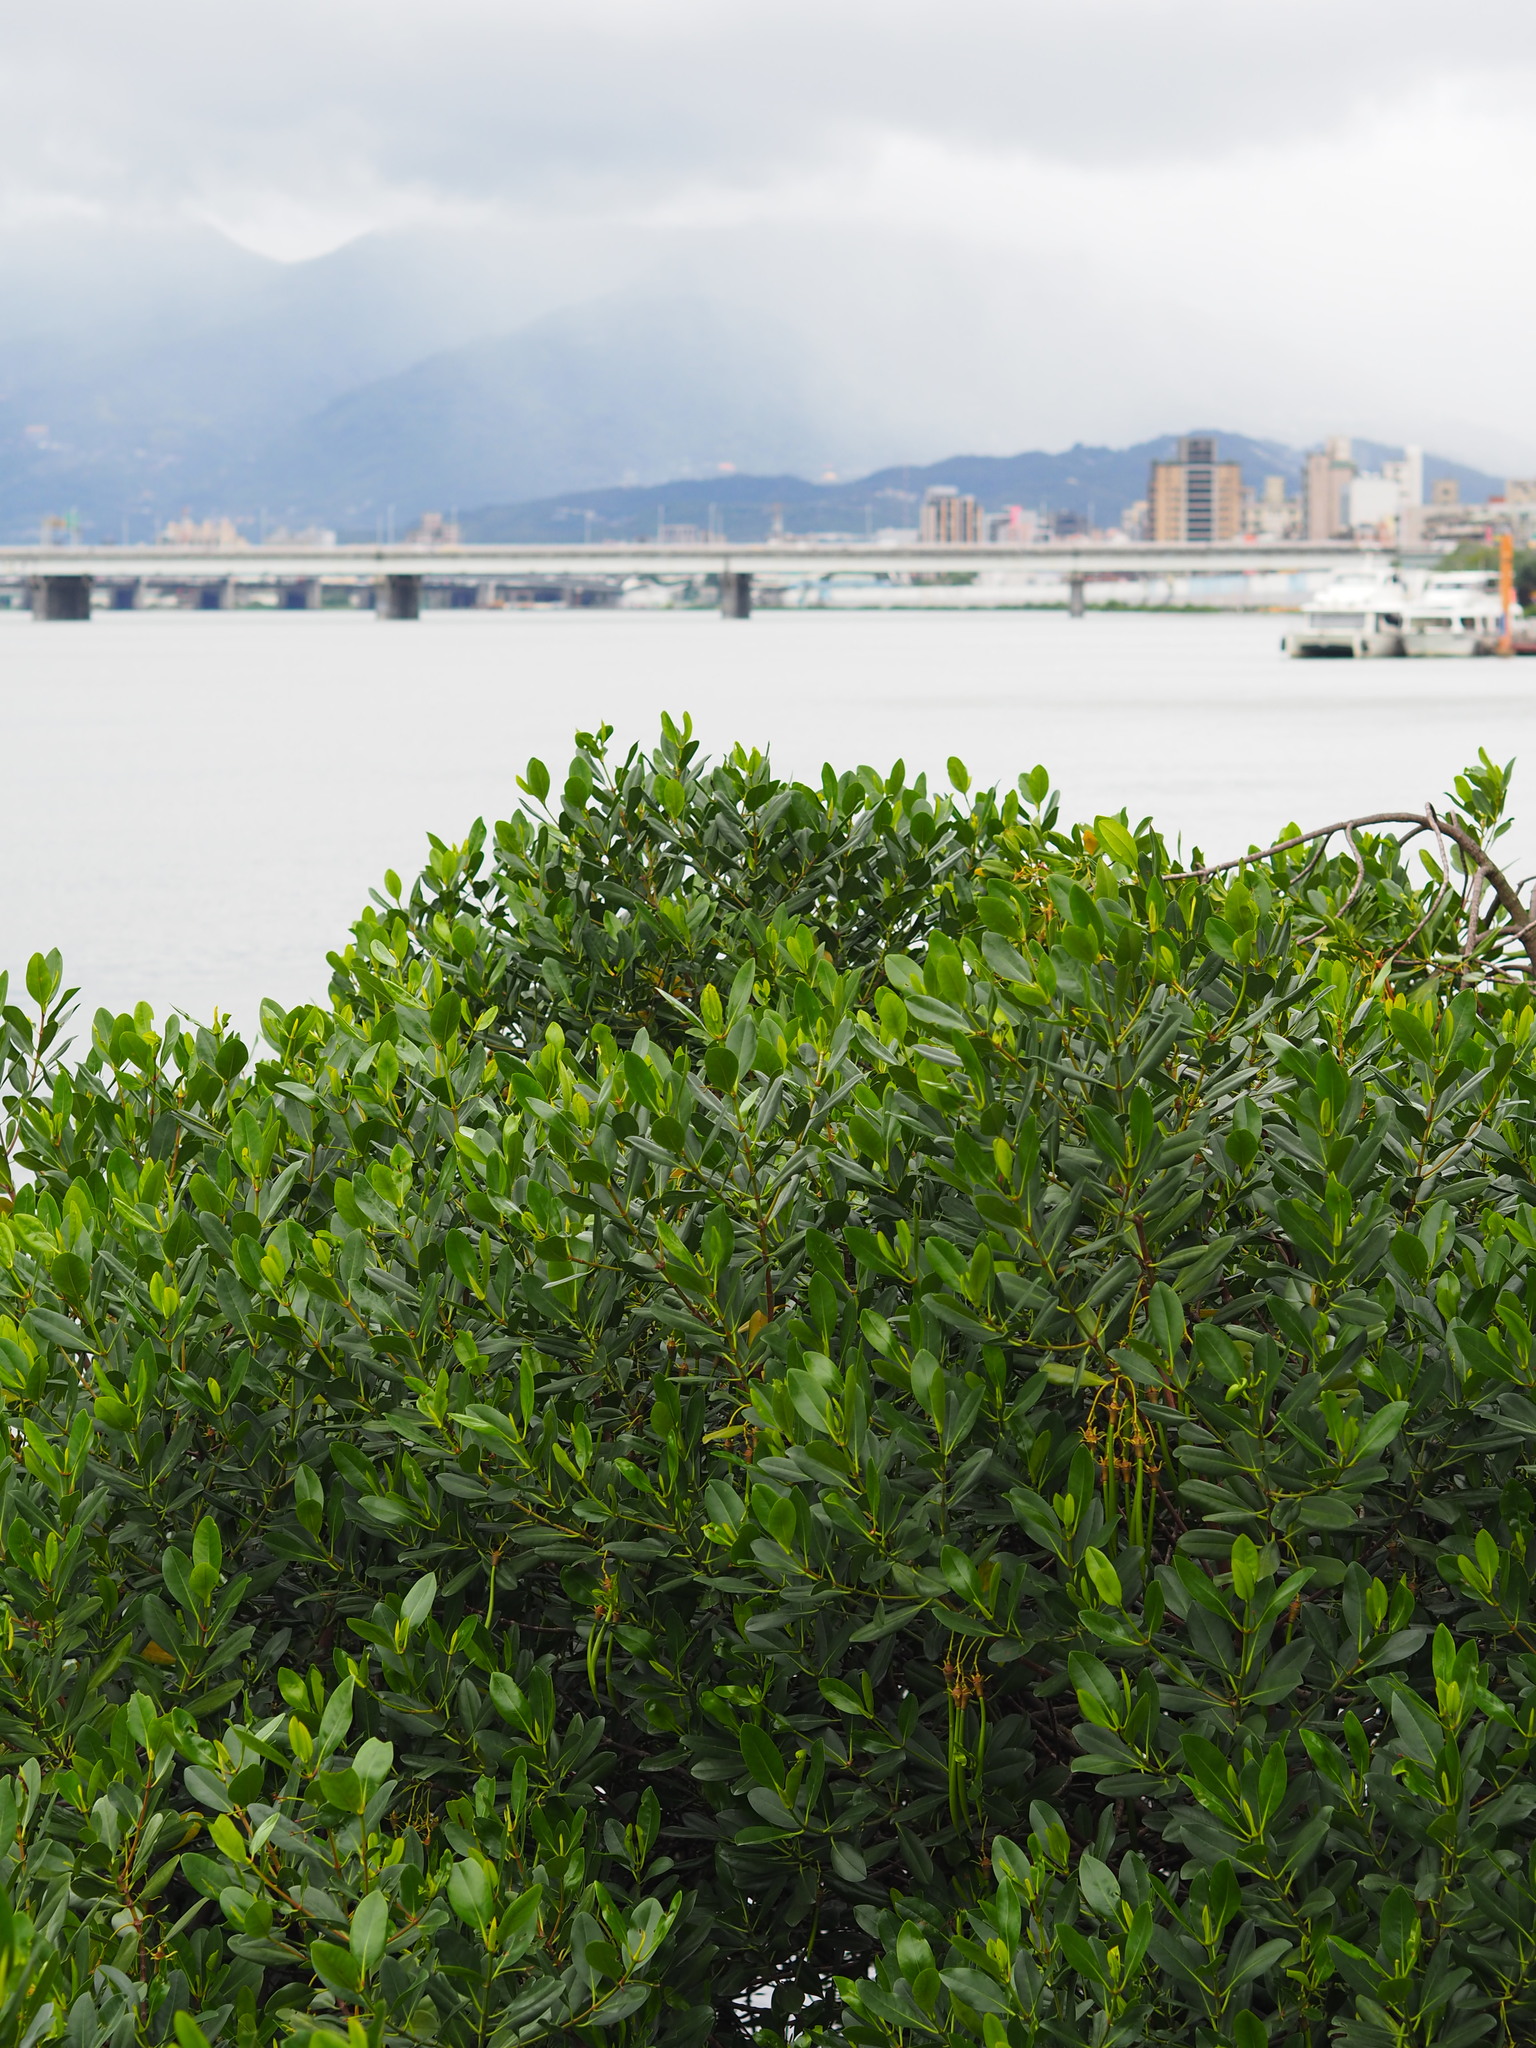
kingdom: Plantae
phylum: Tracheophyta
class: Magnoliopsida
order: Malpighiales
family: Rhizophoraceae
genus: Kandelia
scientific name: Kandelia obovata
